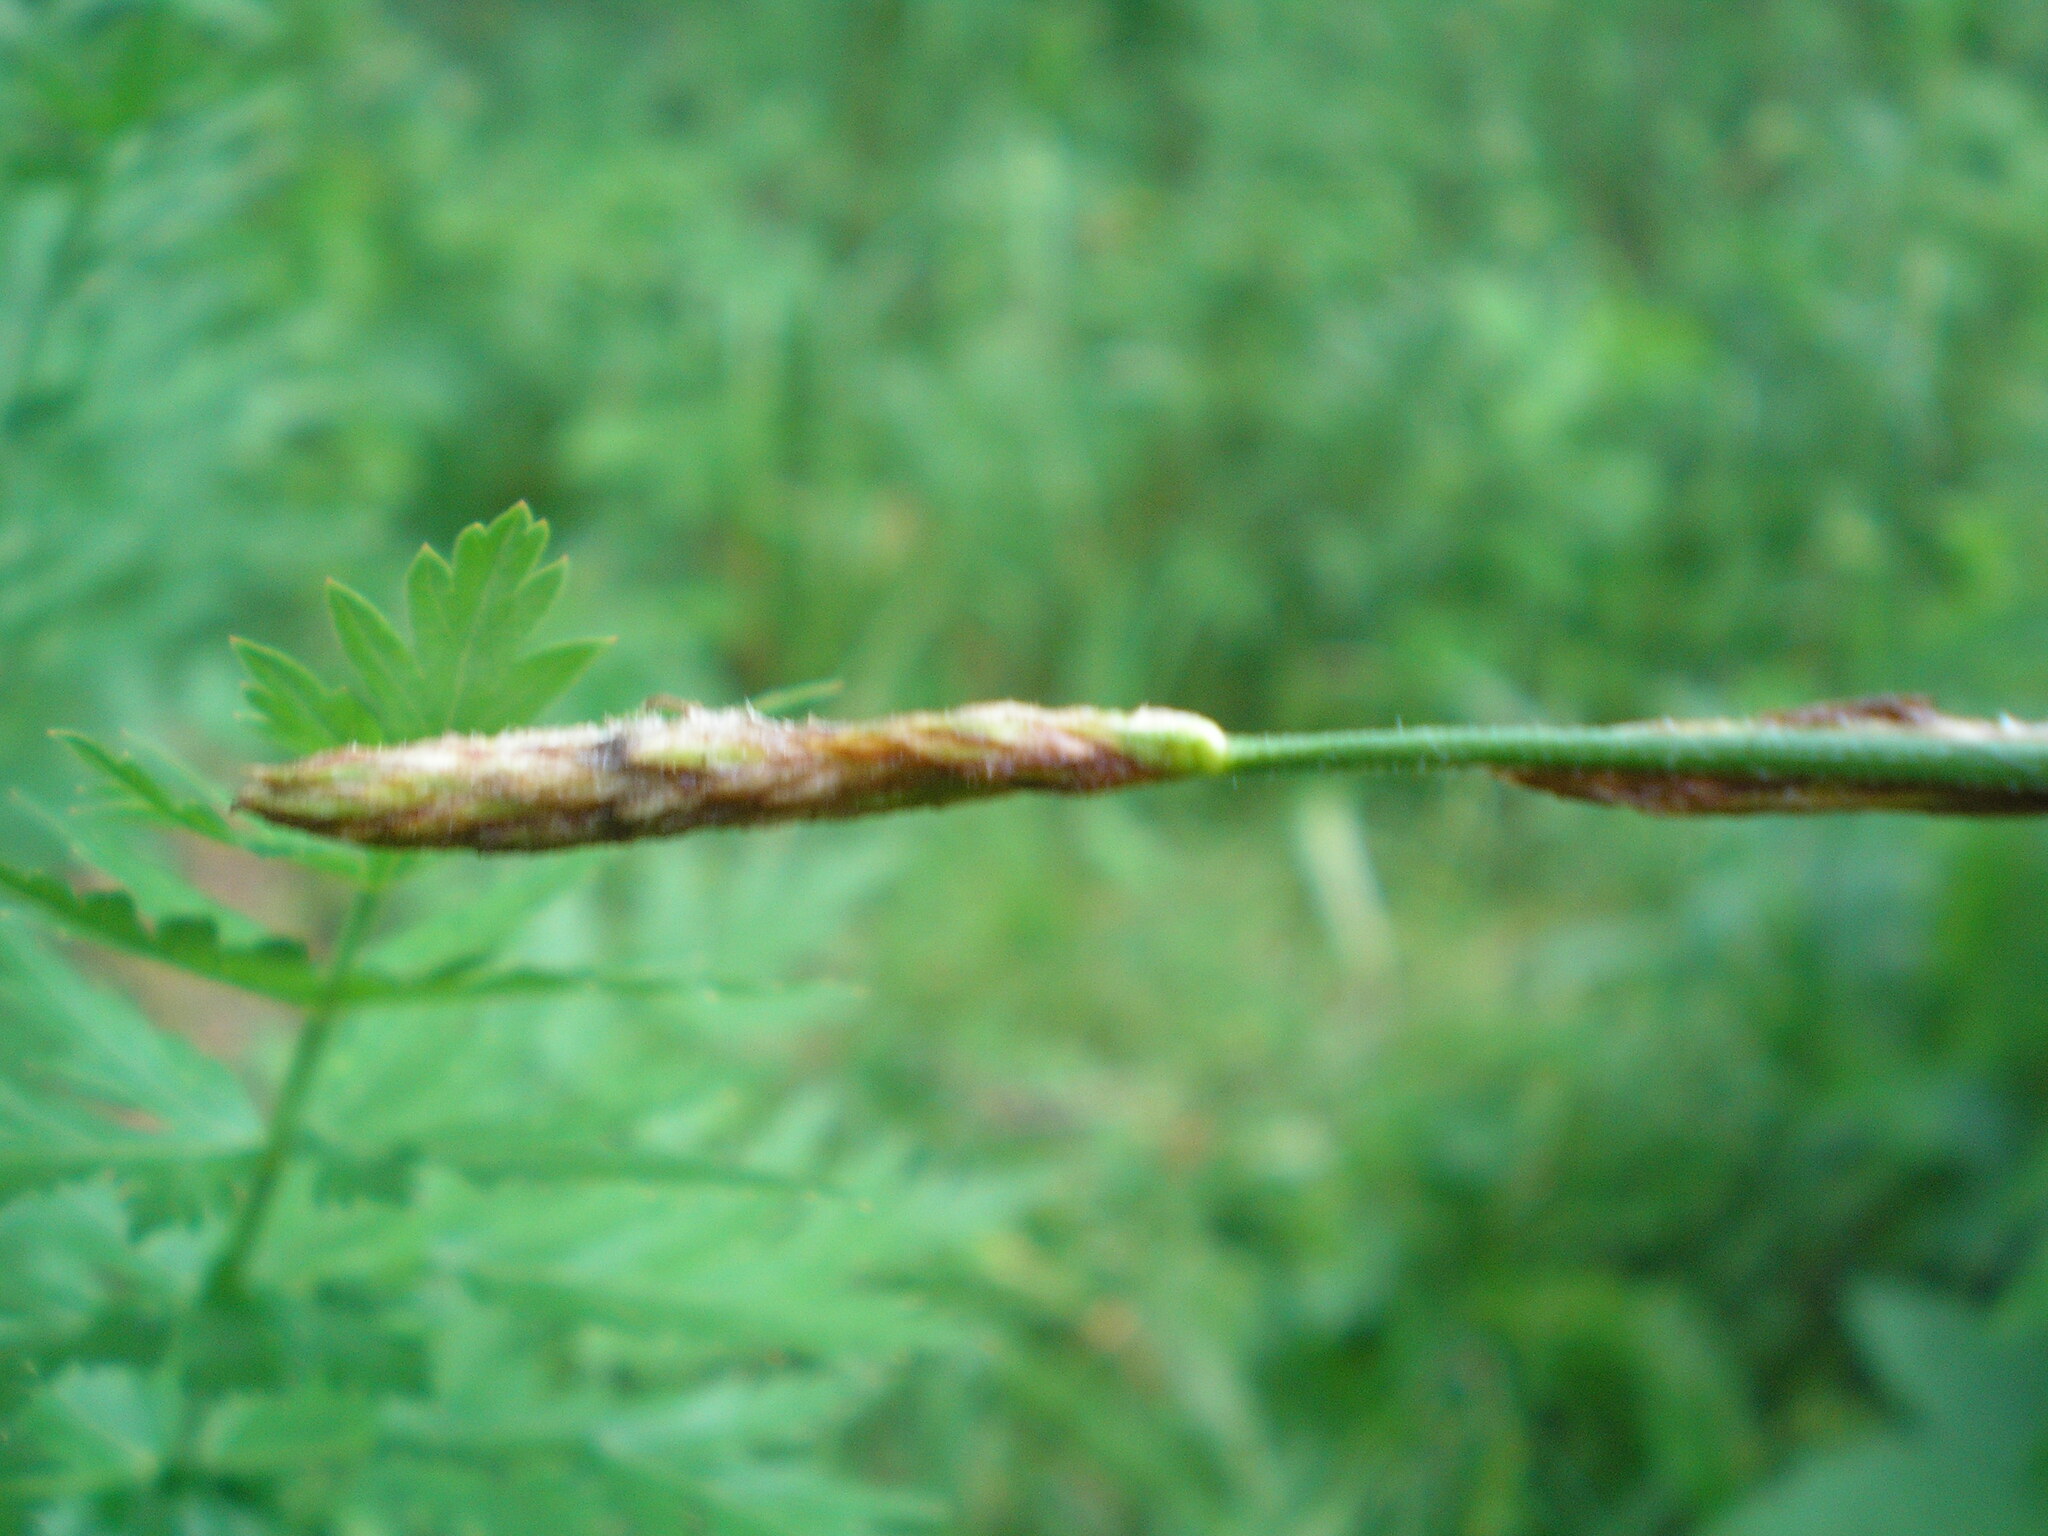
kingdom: Plantae
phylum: Tracheophyta
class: Liliopsida
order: Poales
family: Cyperaceae
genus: Carex
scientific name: Carex hirta
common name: Hairy sedge
